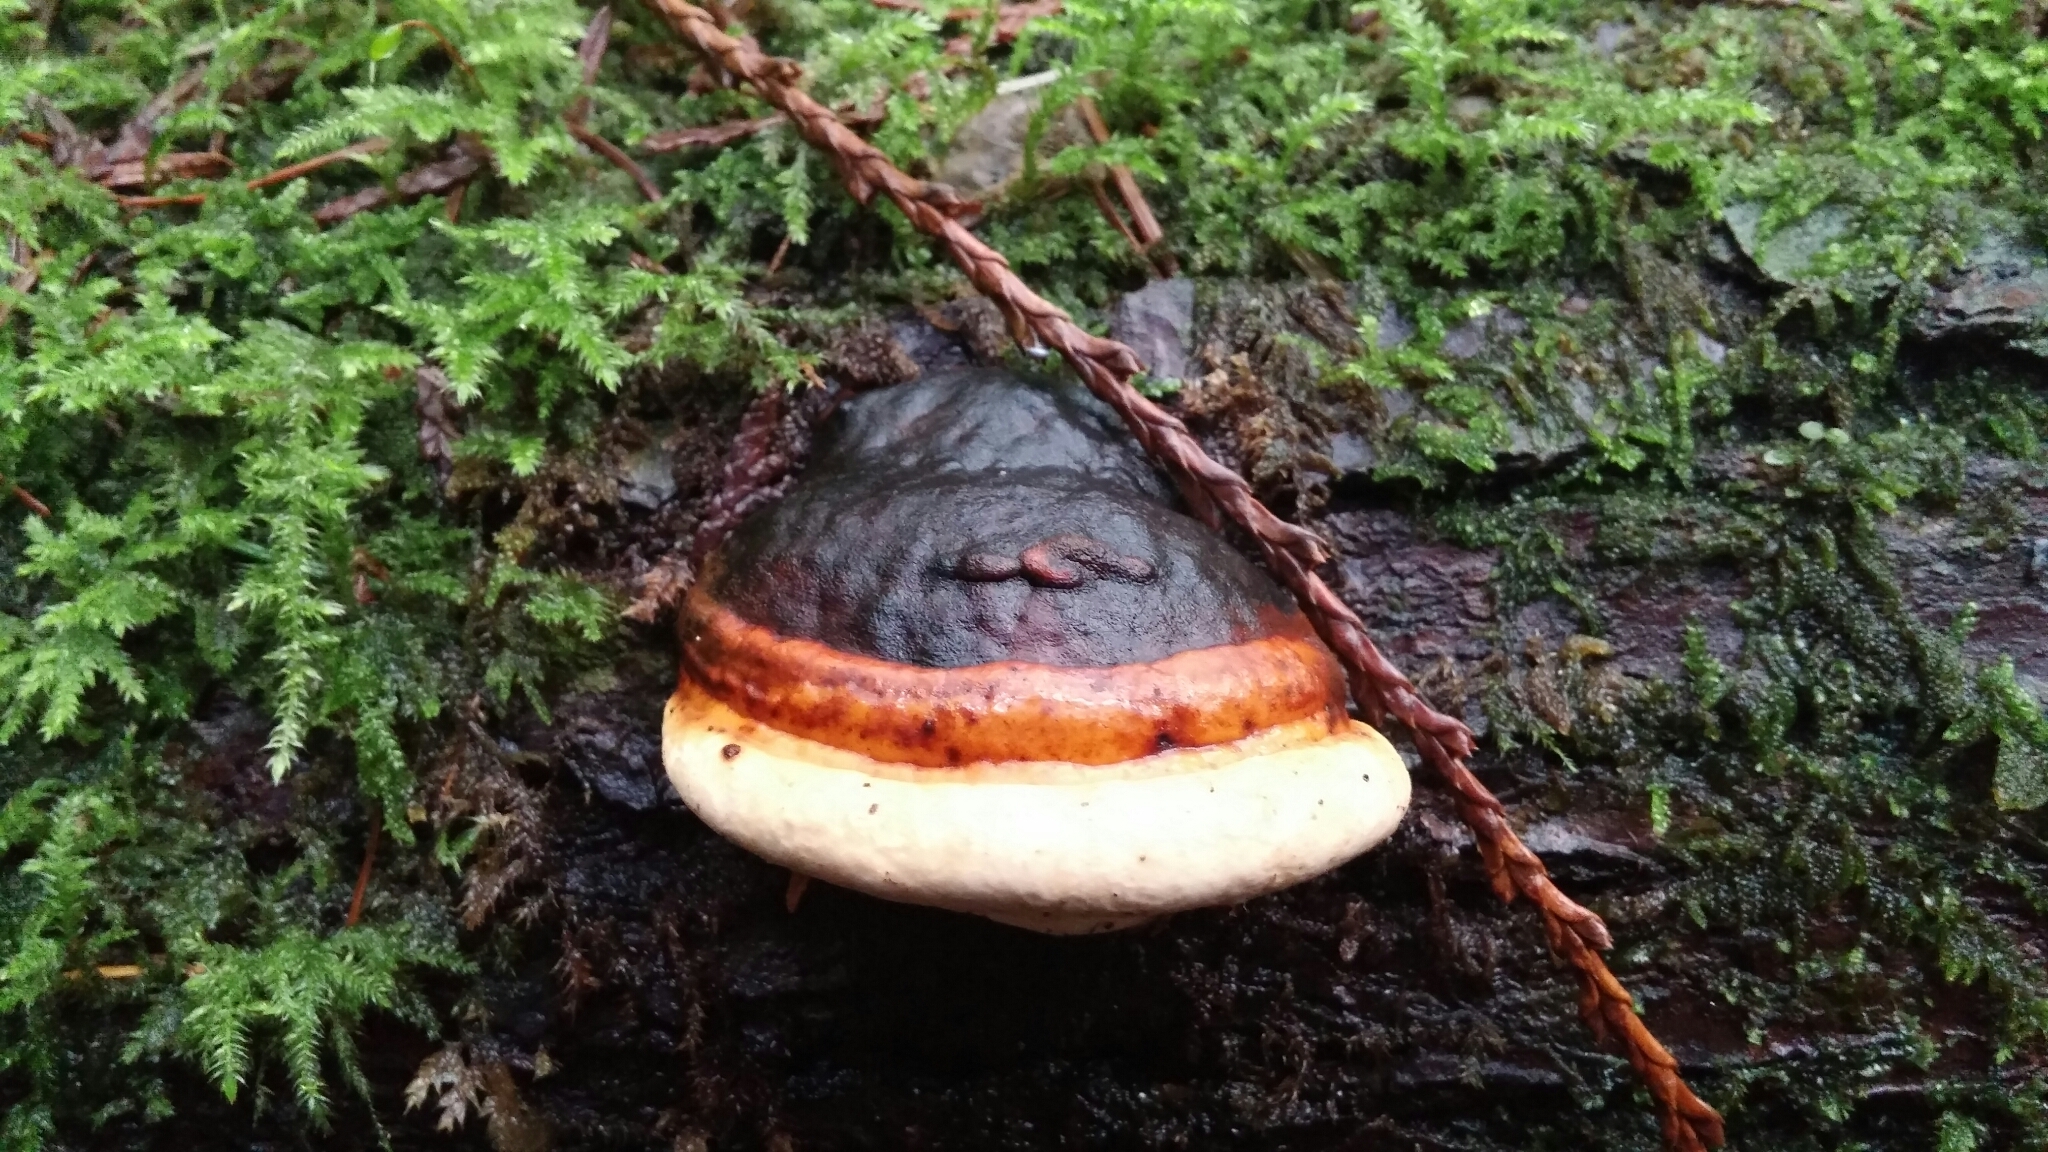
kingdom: Fungi
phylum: Basidiomycota
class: Agaricomycetes
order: Polyporales
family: Fomitopsidaceae
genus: Fomitopsis
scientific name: Fomitopsis mounceae
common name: Northern red belt
